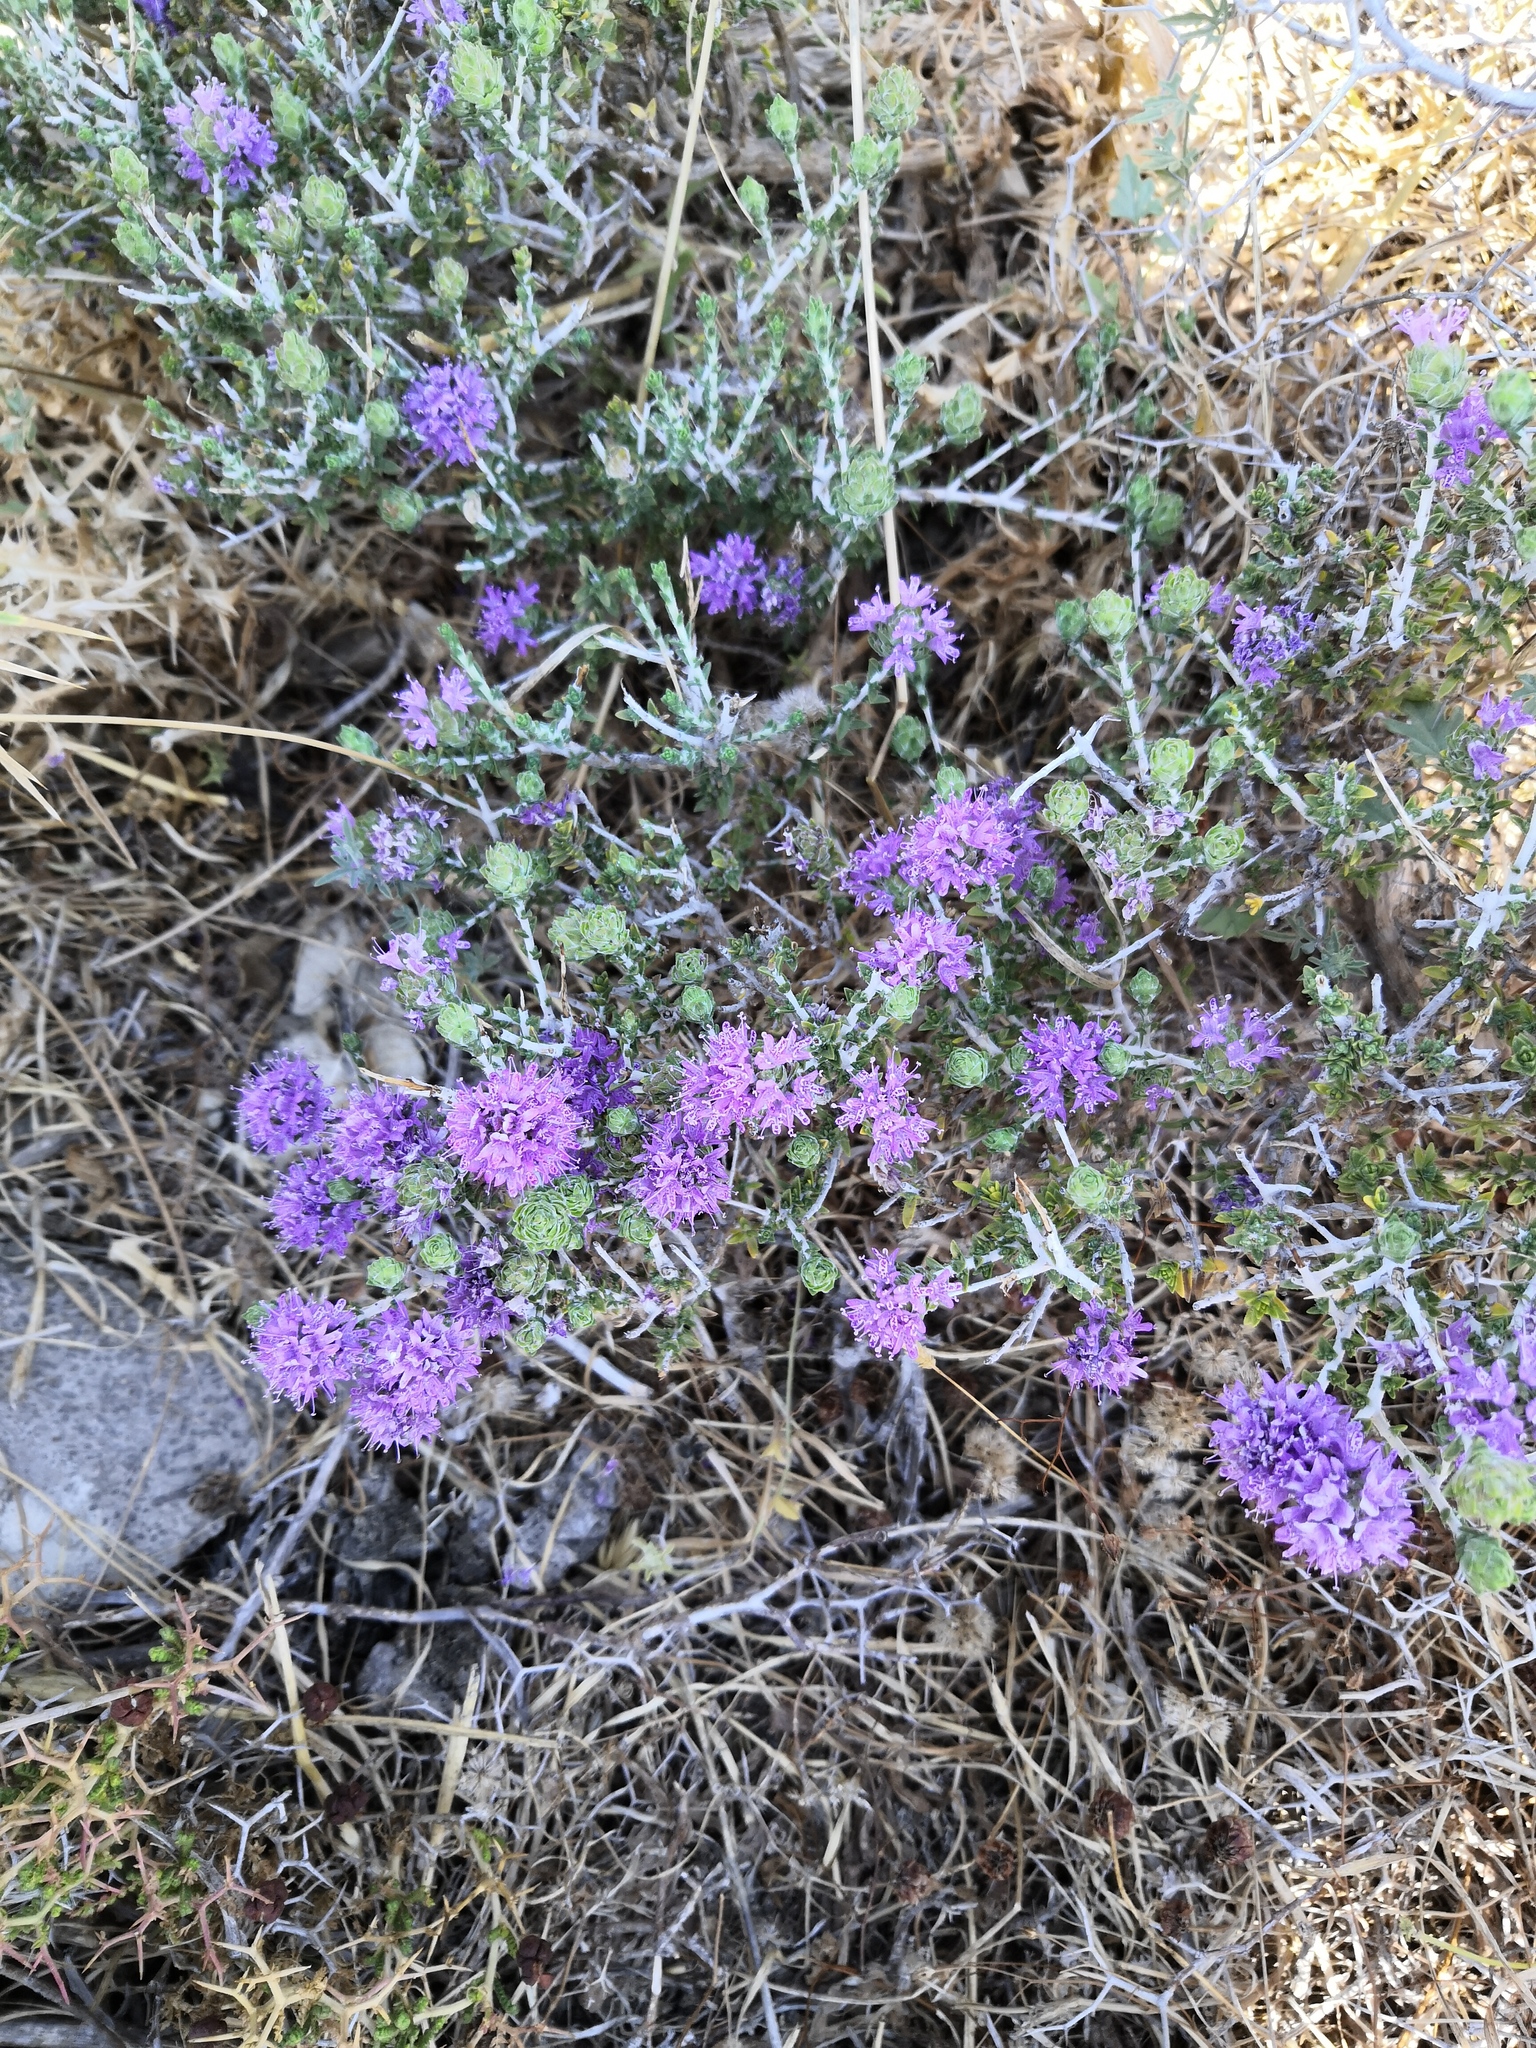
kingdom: Plantae
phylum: Tracheophyta
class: Magnoliopsida
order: Lamiales
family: Lamiaceae
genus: Thymbra
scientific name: Thymbra capitata
